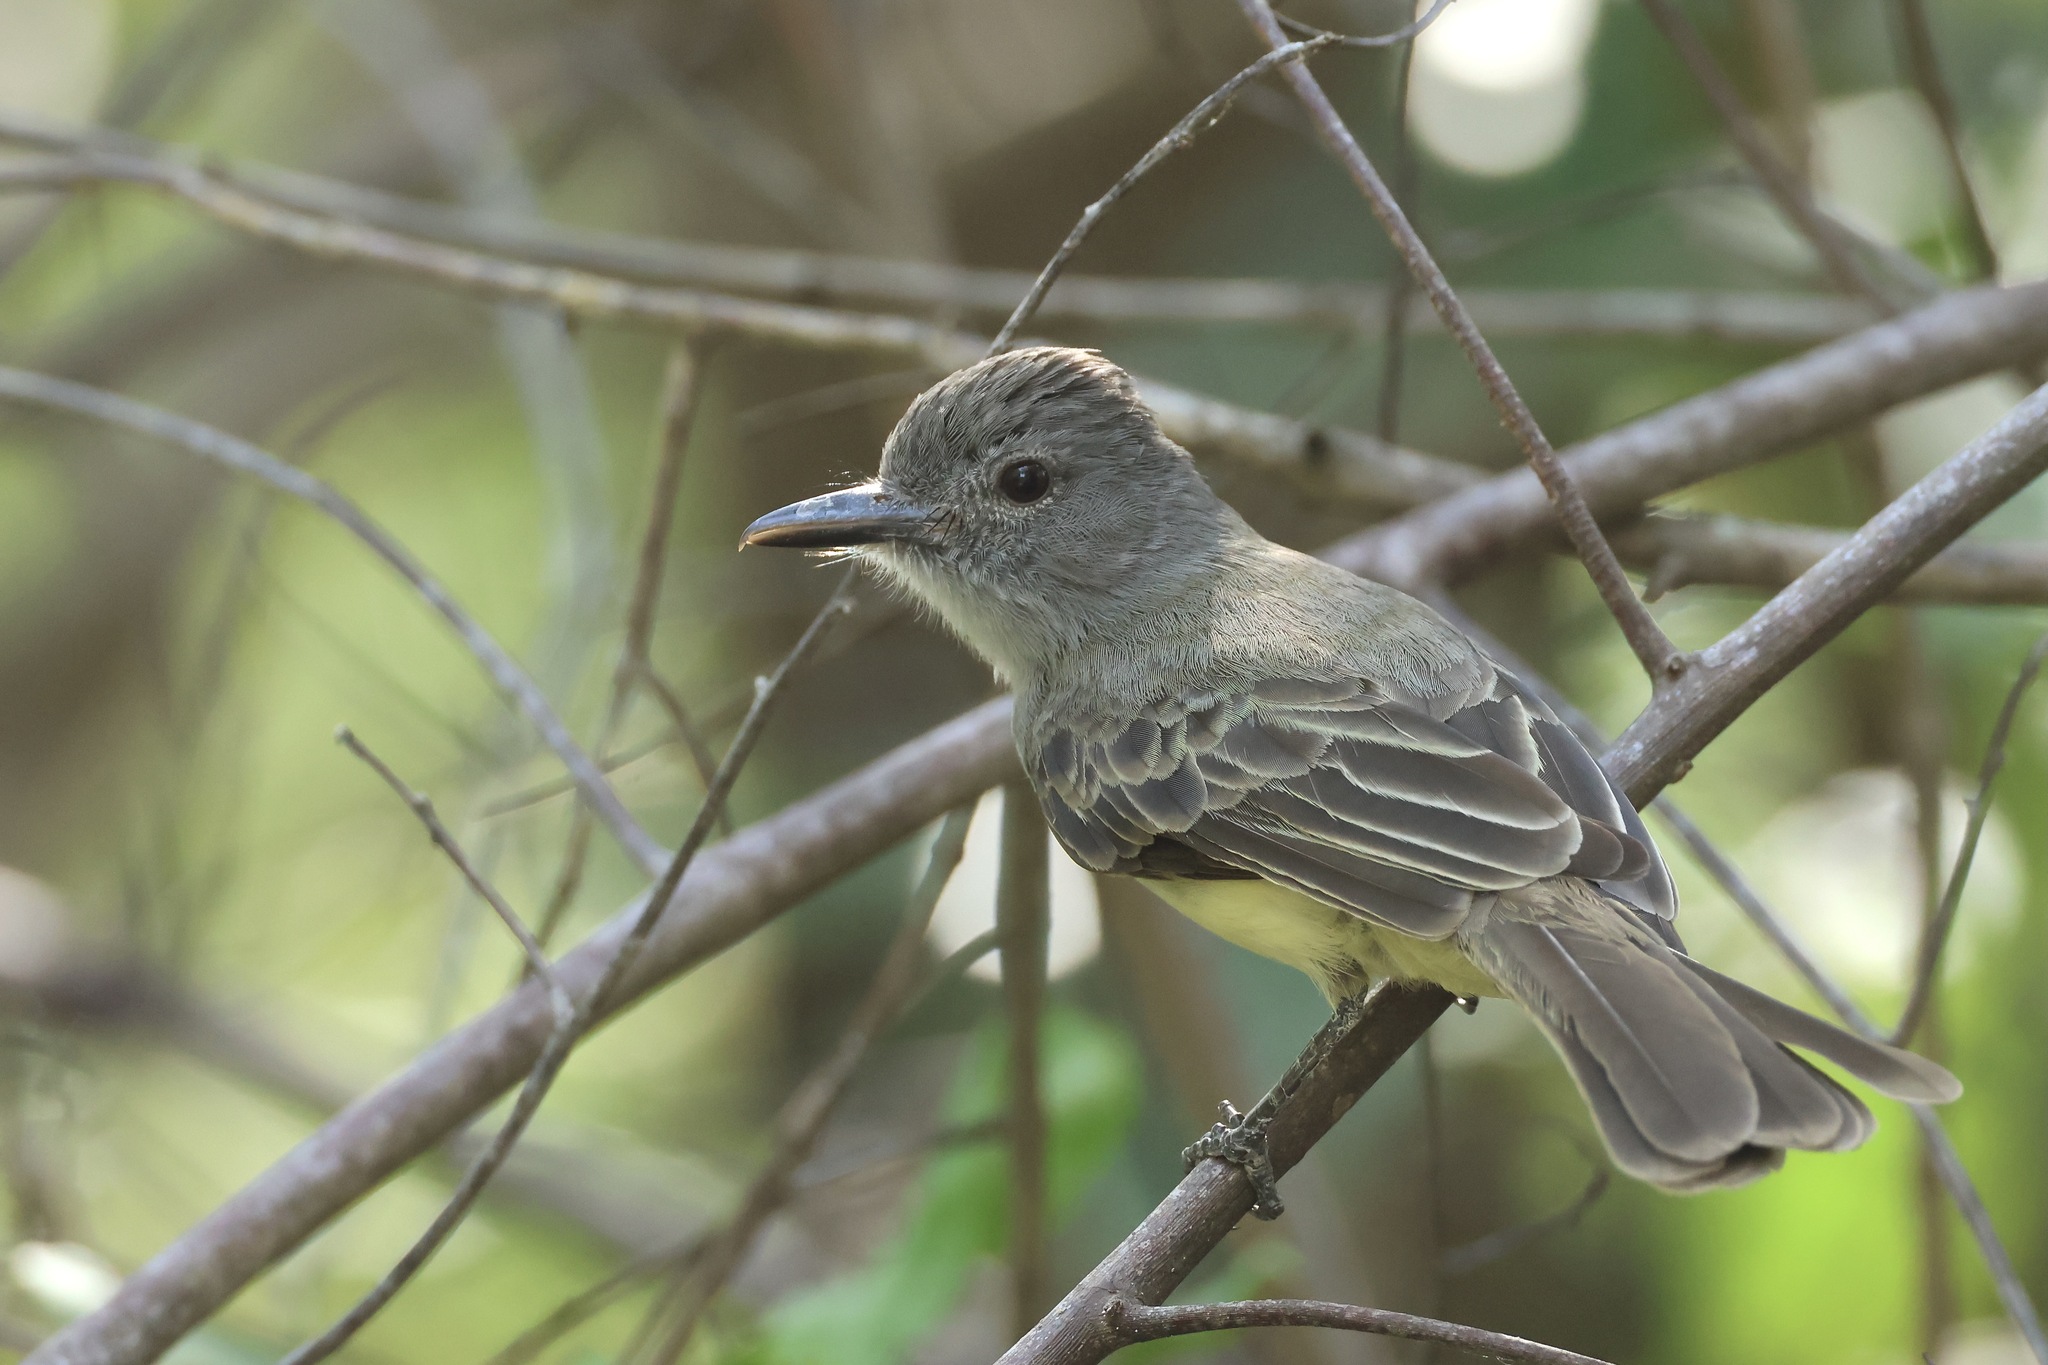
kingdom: Animalia
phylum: Chordata
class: Aves
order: Passeriformes
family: Tyrannidae
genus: Myiarchus
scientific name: Myiarchus panamensis
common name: Panama flycatcher
